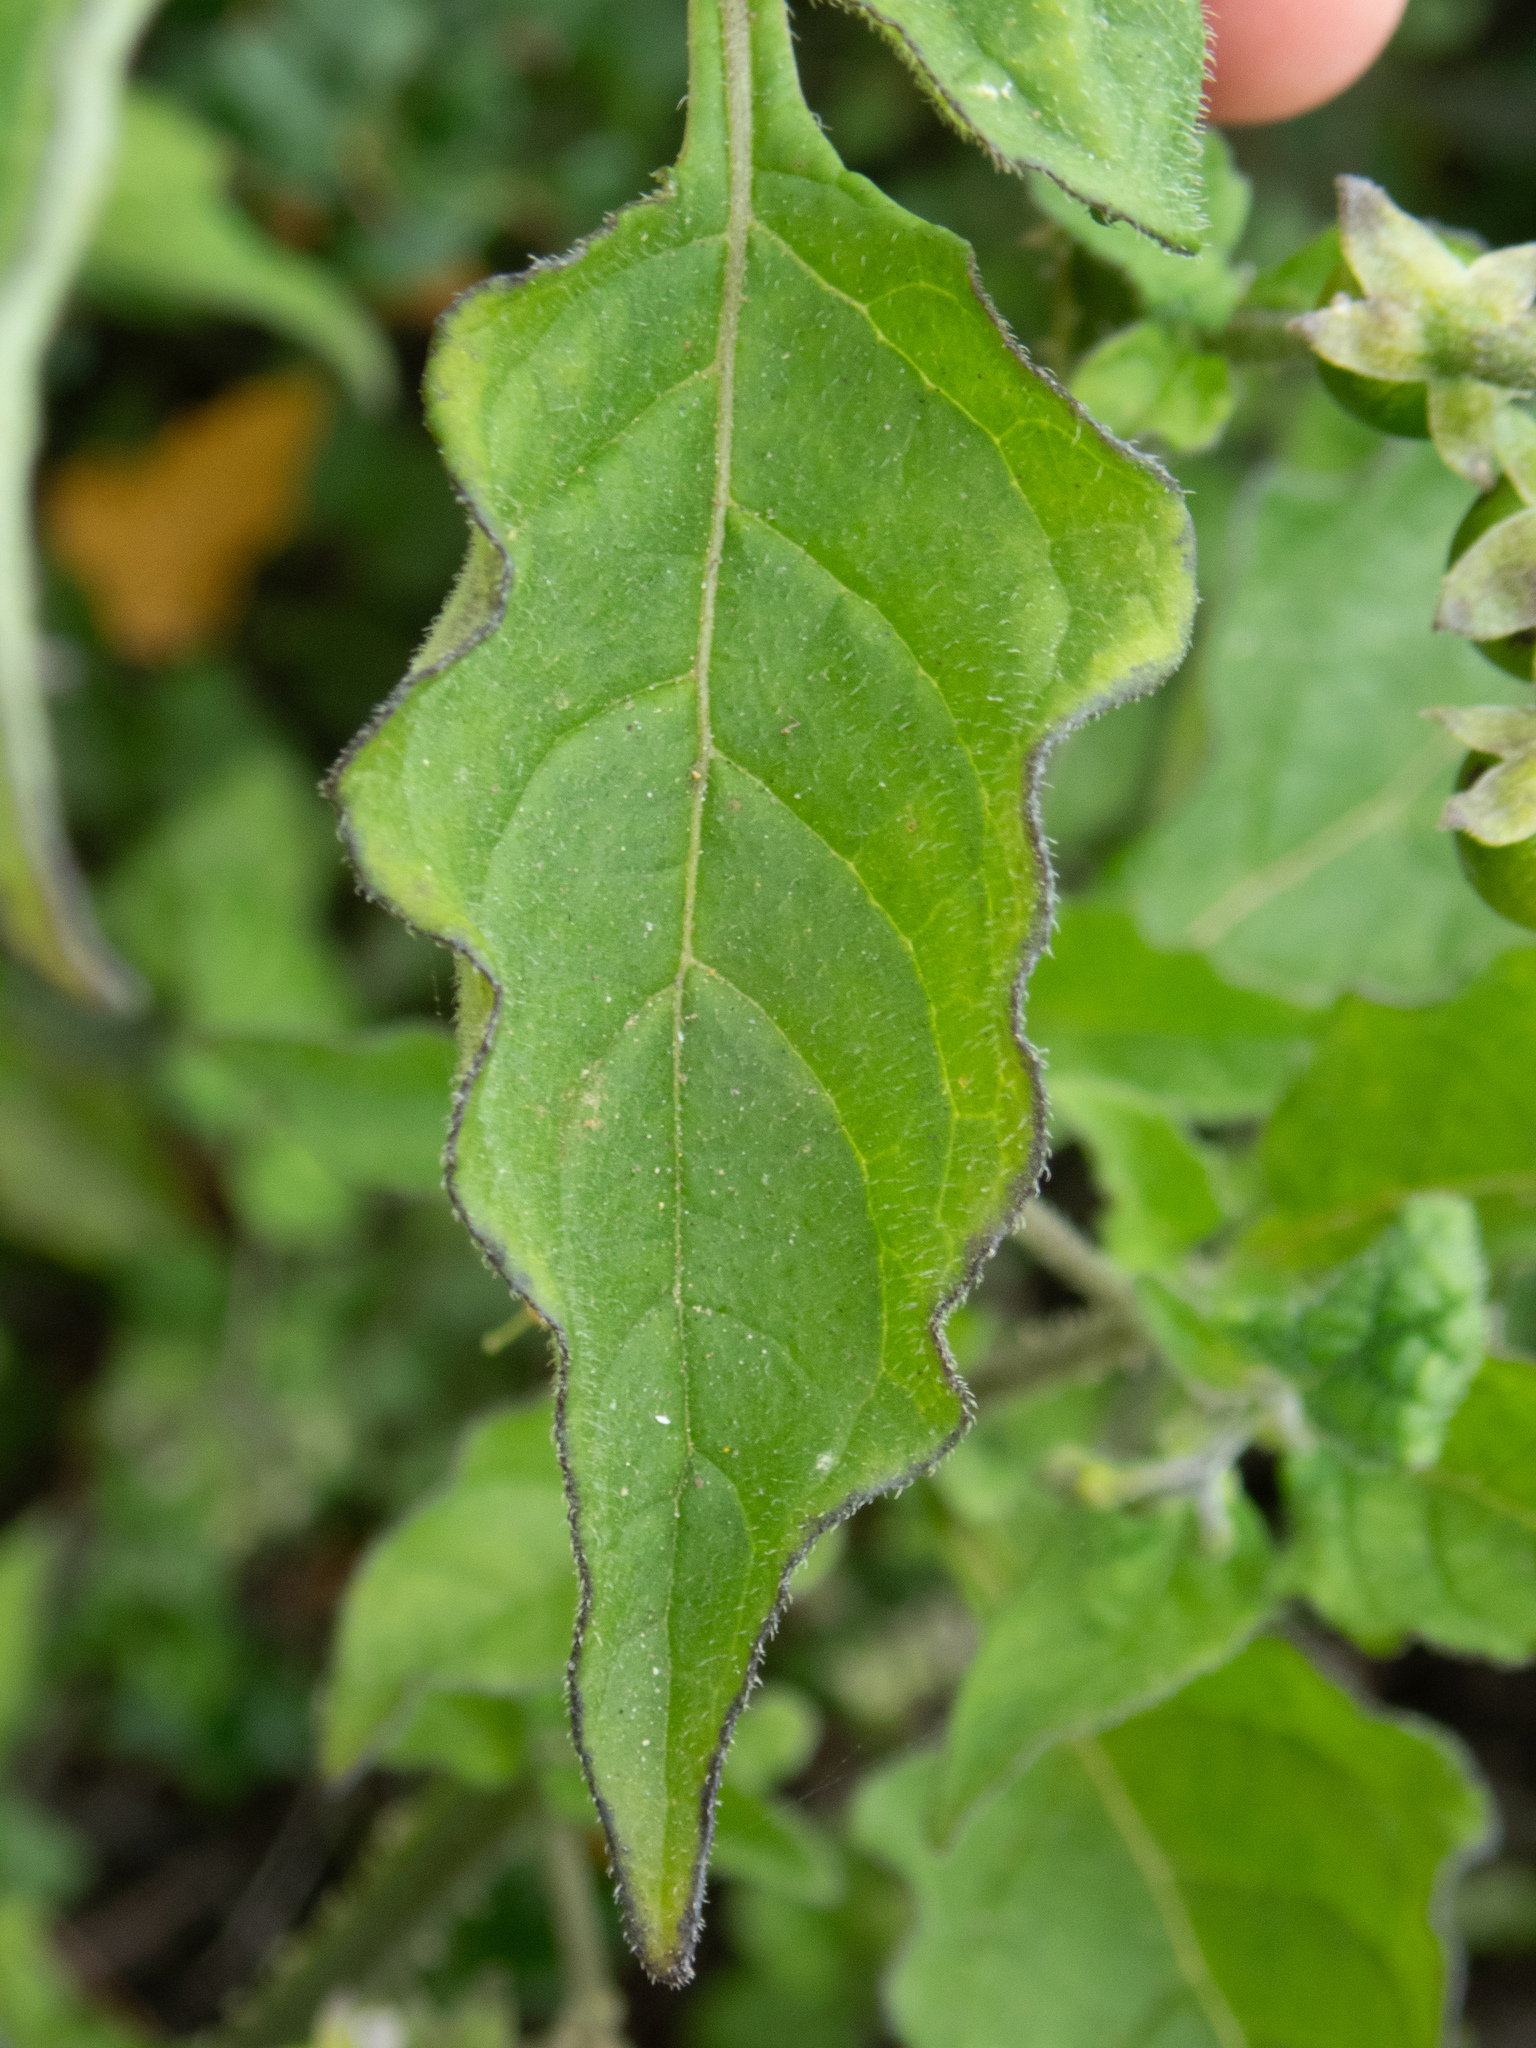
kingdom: Plantae
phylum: Tracheophyta
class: Magnoliopsida
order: Solanales
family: Solanaceae
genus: Solanum
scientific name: Solanum douglasii
